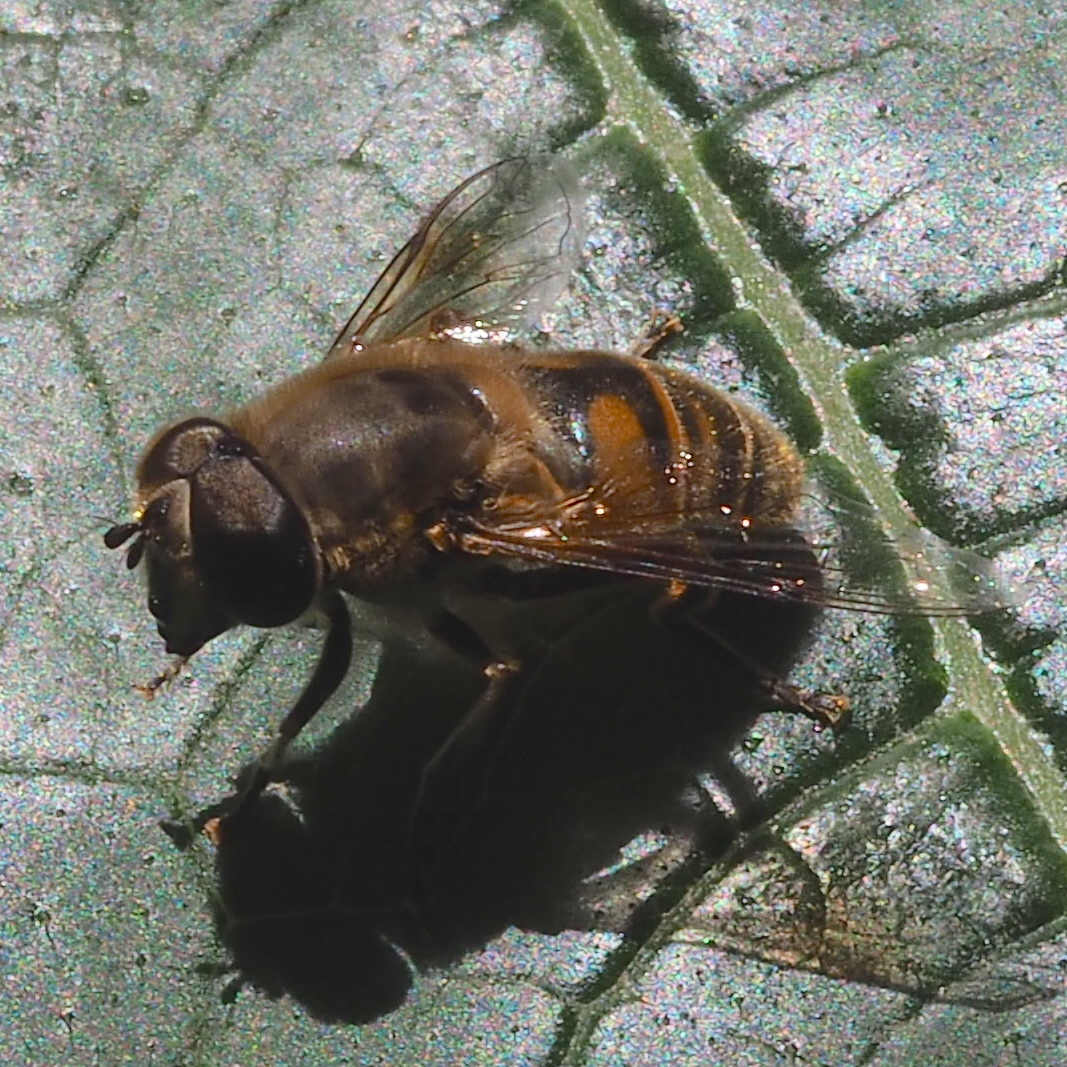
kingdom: Animalia
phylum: Arthropoda
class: Insecta
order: Diptera
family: Syrphidae
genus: Eristalis
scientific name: Eristalis tenax
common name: Drone fly
